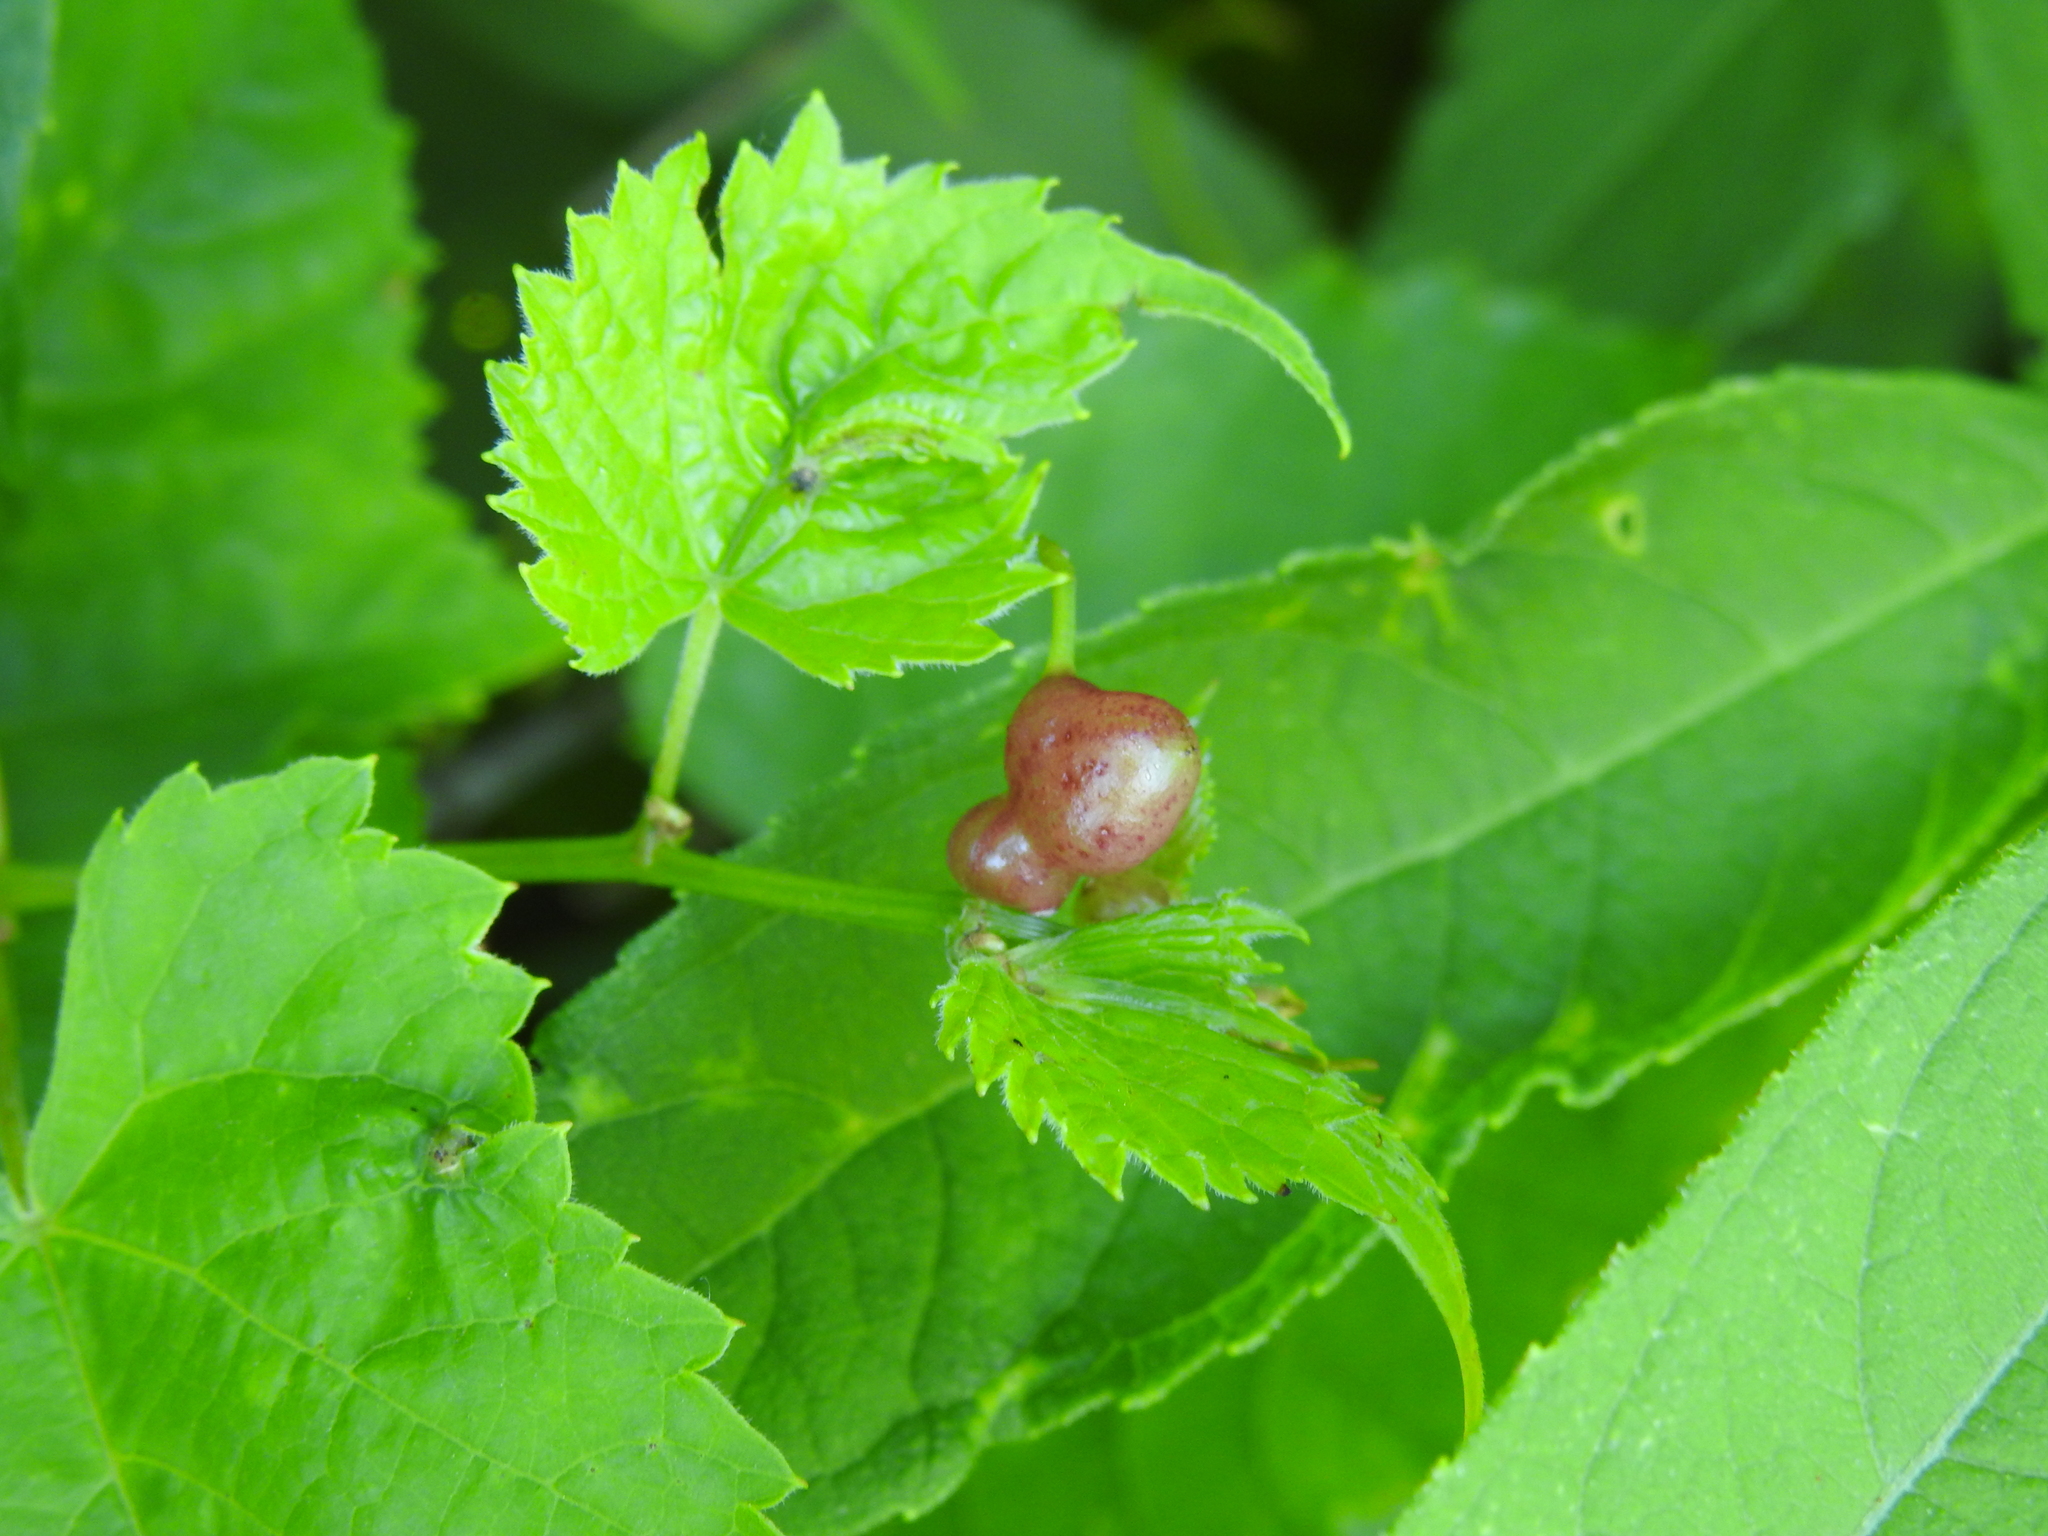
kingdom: Animalia
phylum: Arthropoda
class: Insecta
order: Diptera
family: Cecidomyiidae
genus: Vitisiella
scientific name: Vitisiella brevicauda
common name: Grape tumid gallmaker midge
